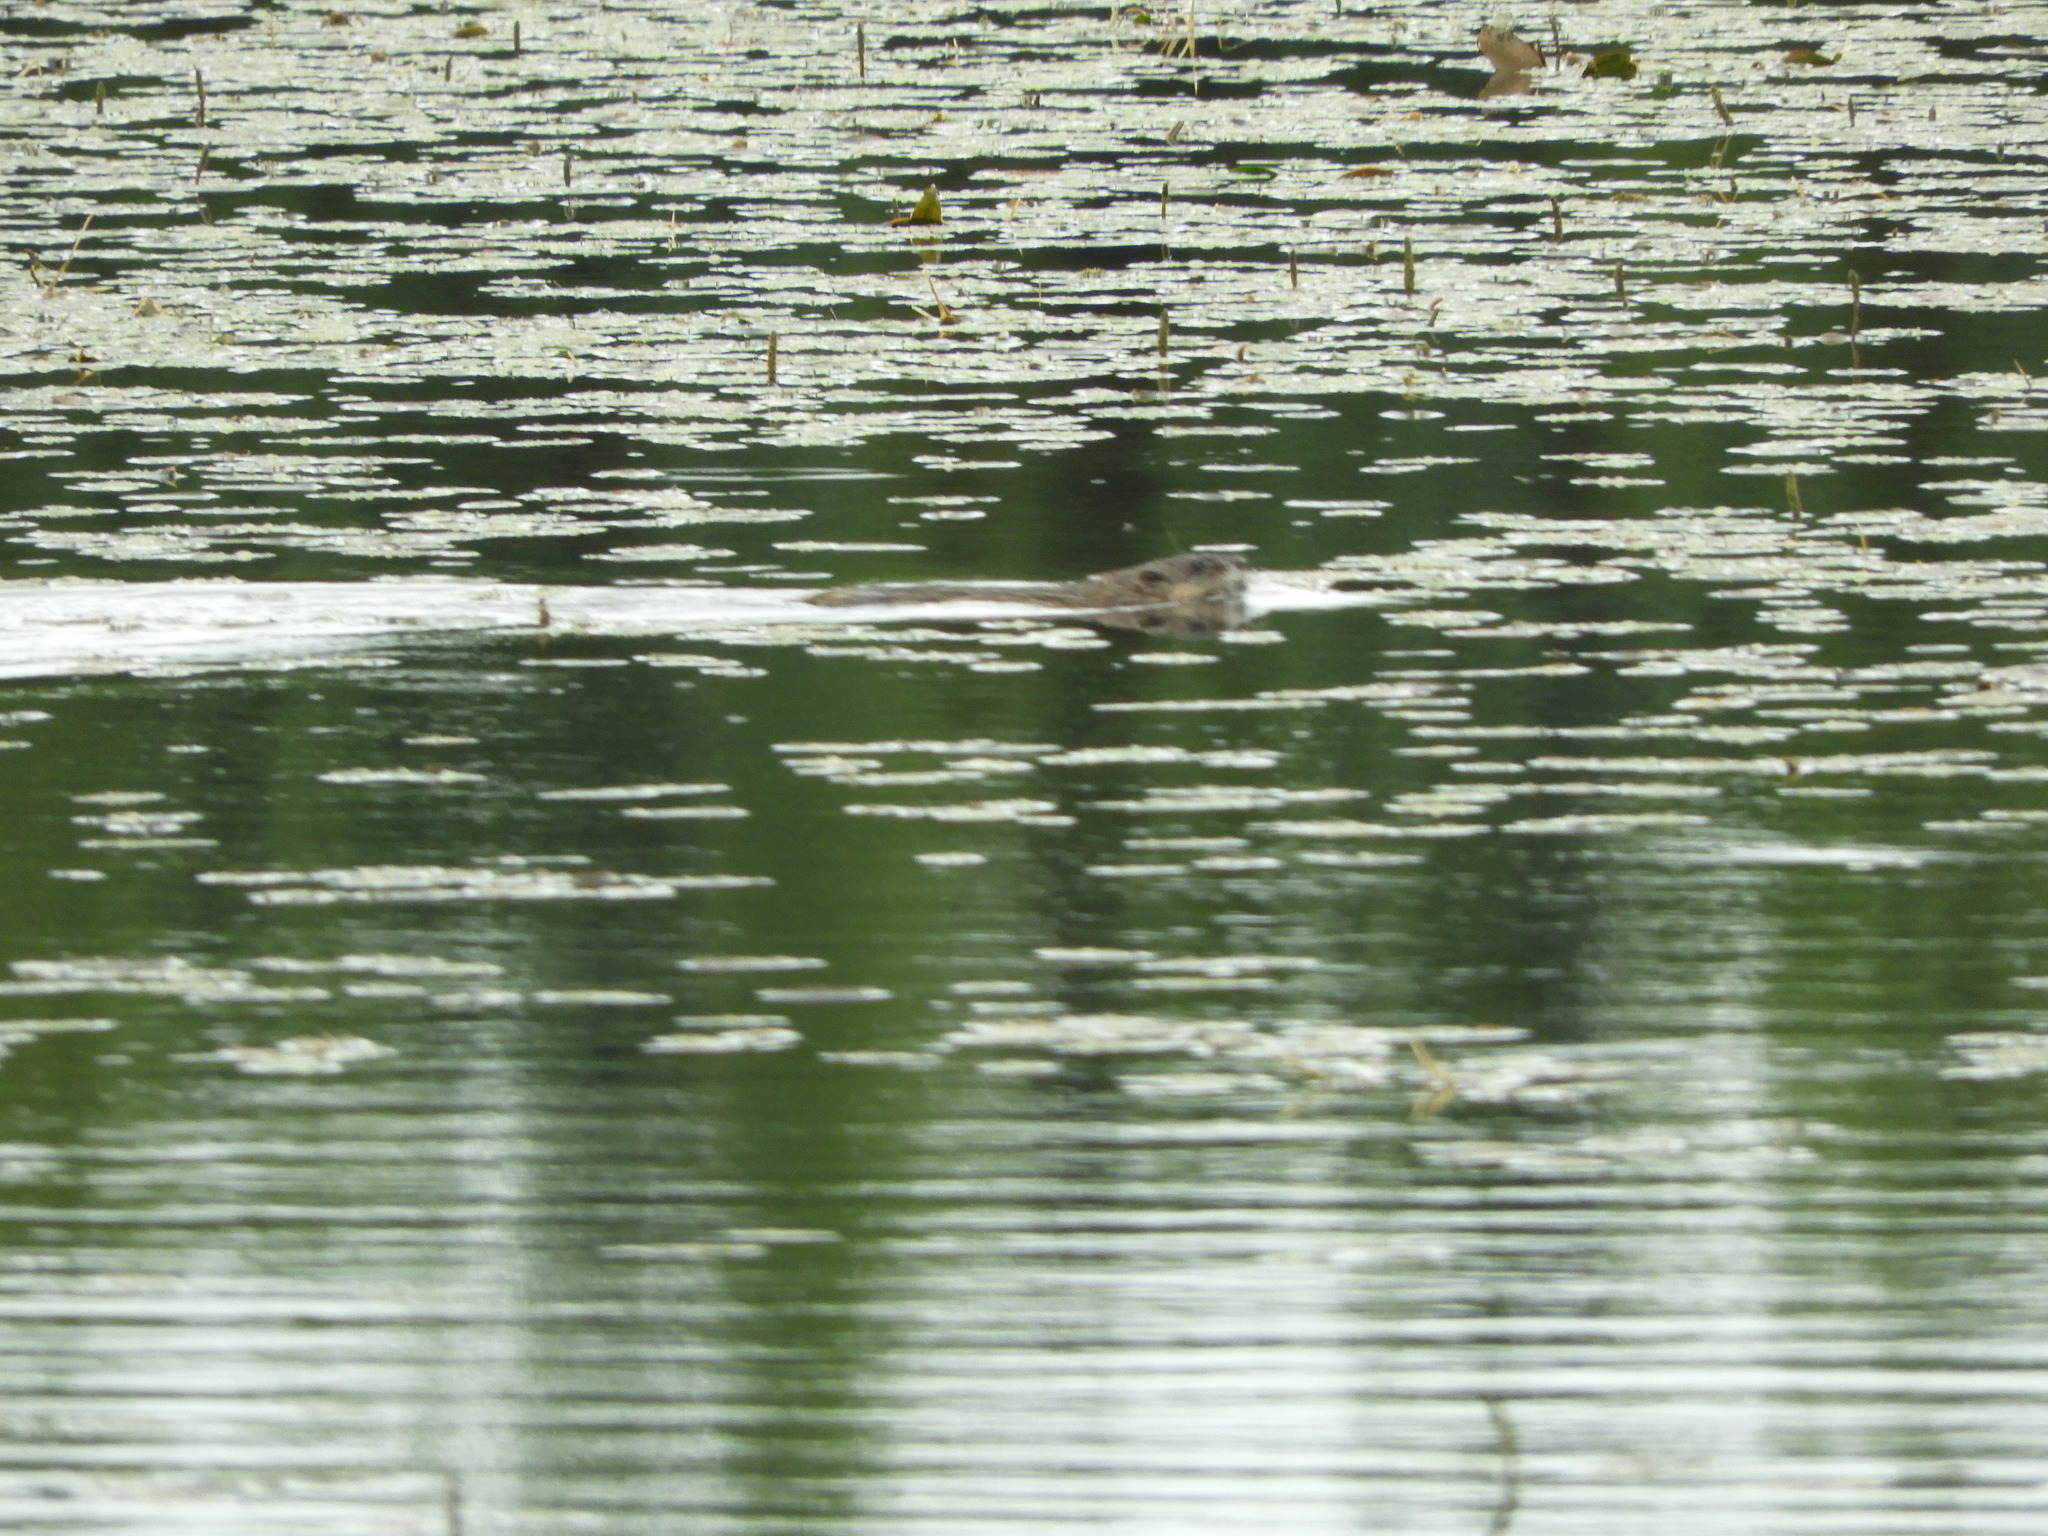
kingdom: Animalia
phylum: Chordata
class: Mammalia
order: Rodentia
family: Cricetidae
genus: Ondatra
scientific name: Ondatra zibethicus
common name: Muskrat
